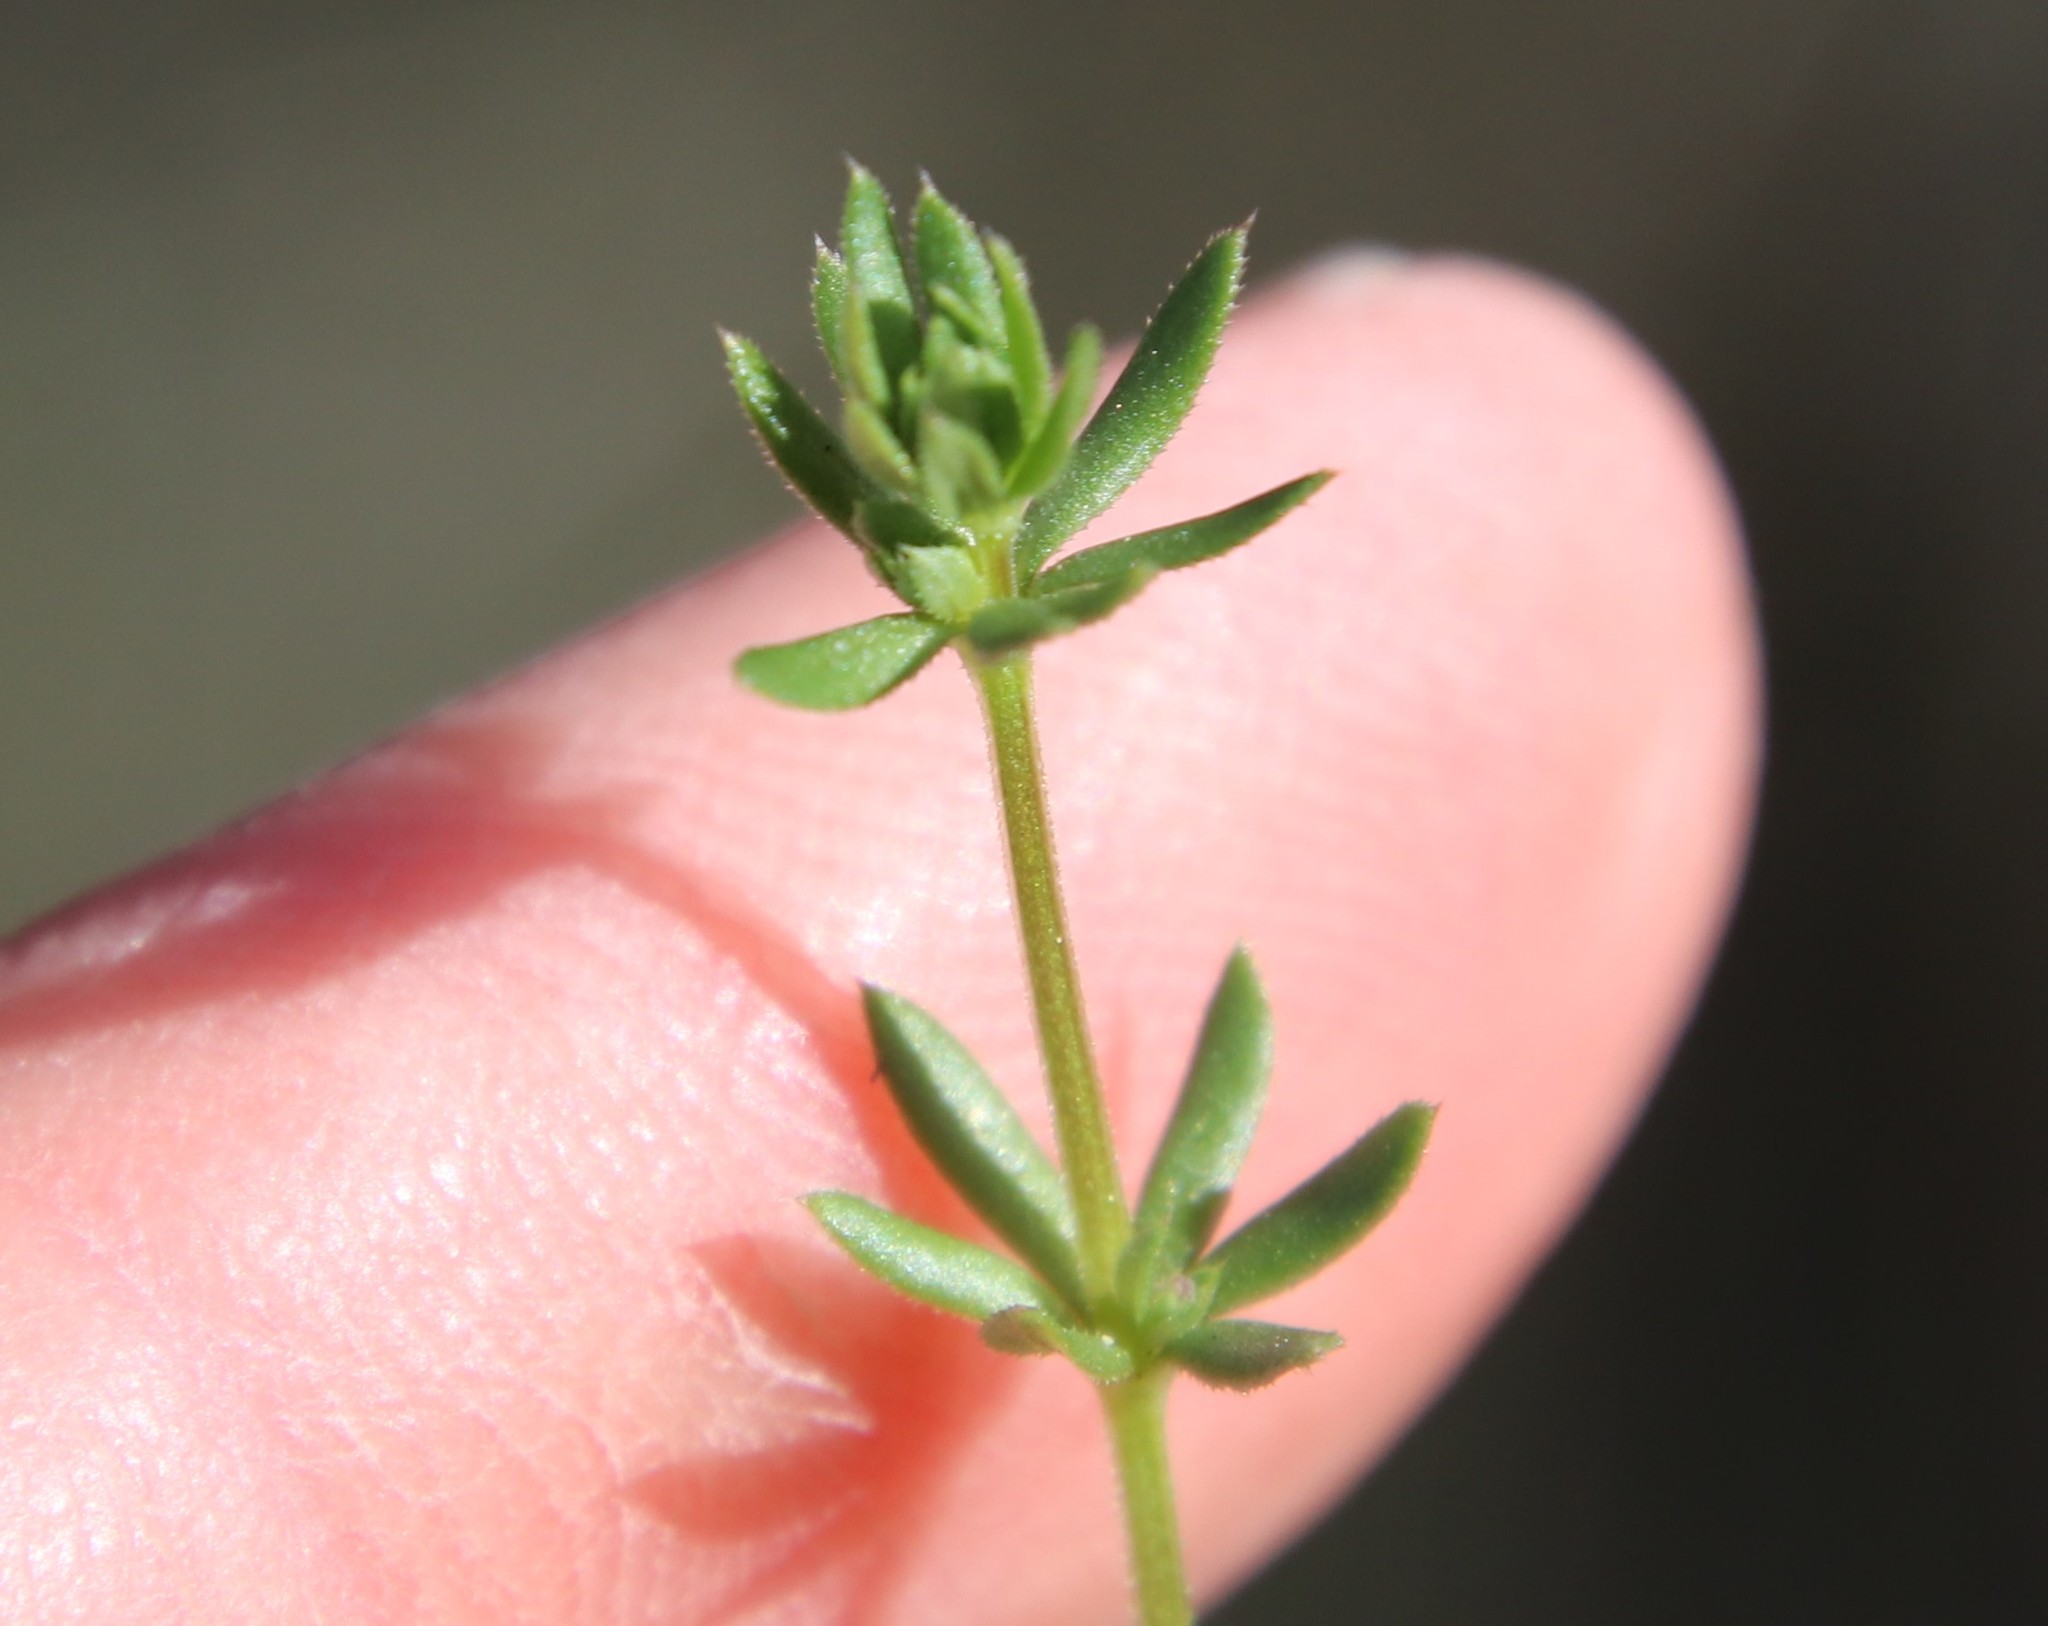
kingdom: Plantae
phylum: Tracheophyta
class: Magnoliopsida
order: Gentianales
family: Rubiaceae
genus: Galium
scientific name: Galium aparine
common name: Cleavers
